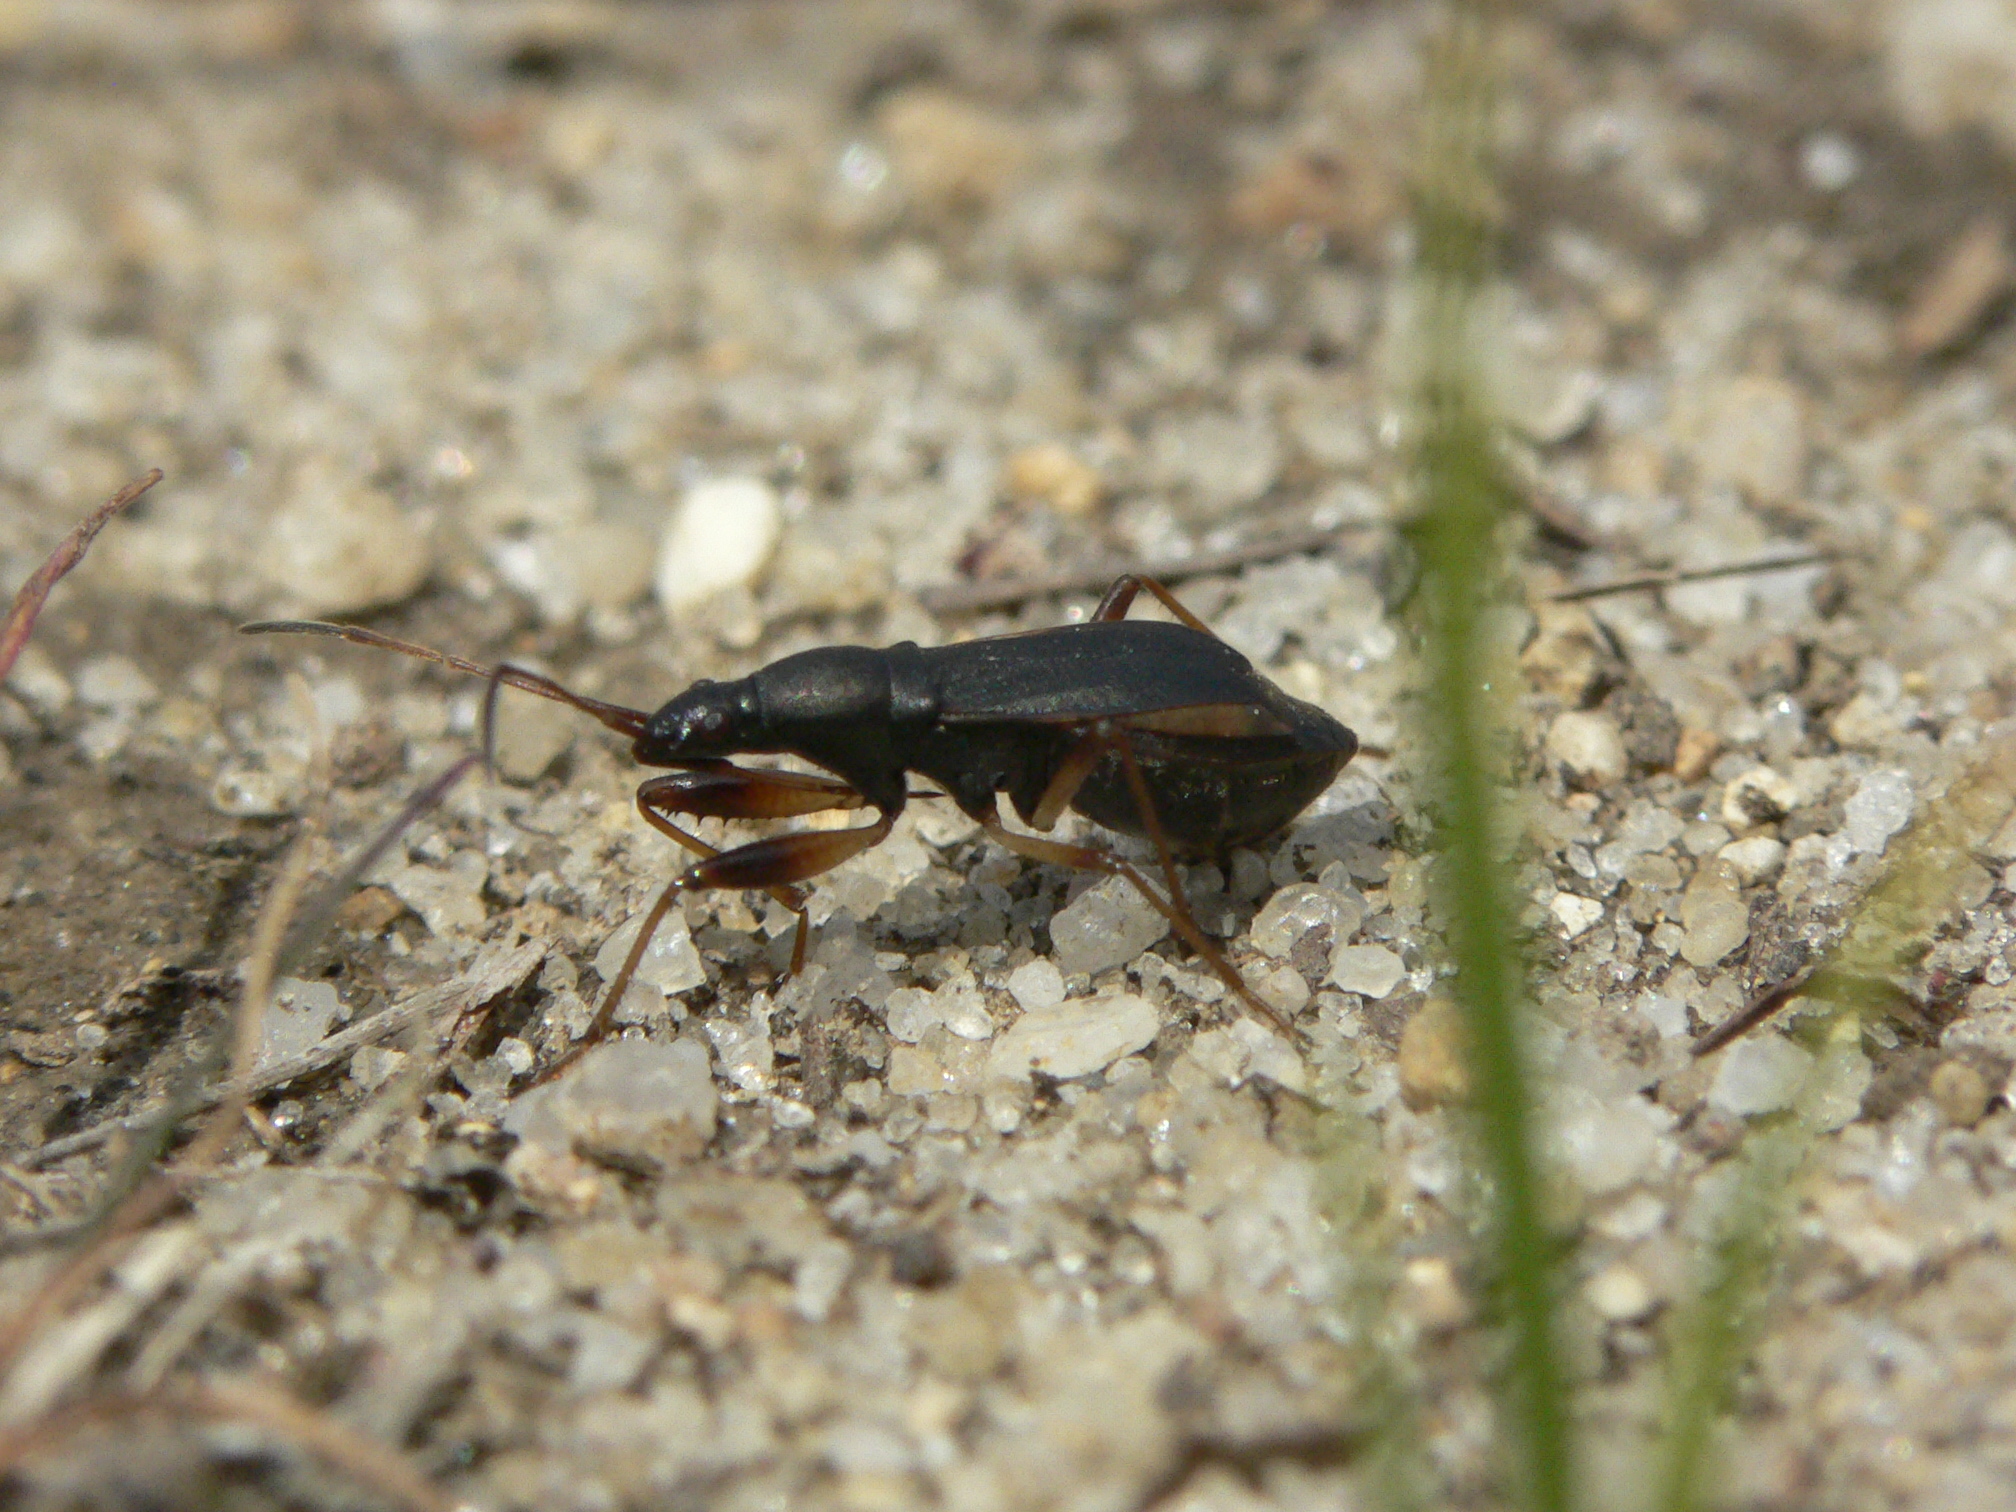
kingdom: Animalia
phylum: Arthropoda
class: Insecta
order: Hemiptera
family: Rhyparochromidae
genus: Cnemodus
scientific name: Cnemodus mavortius
